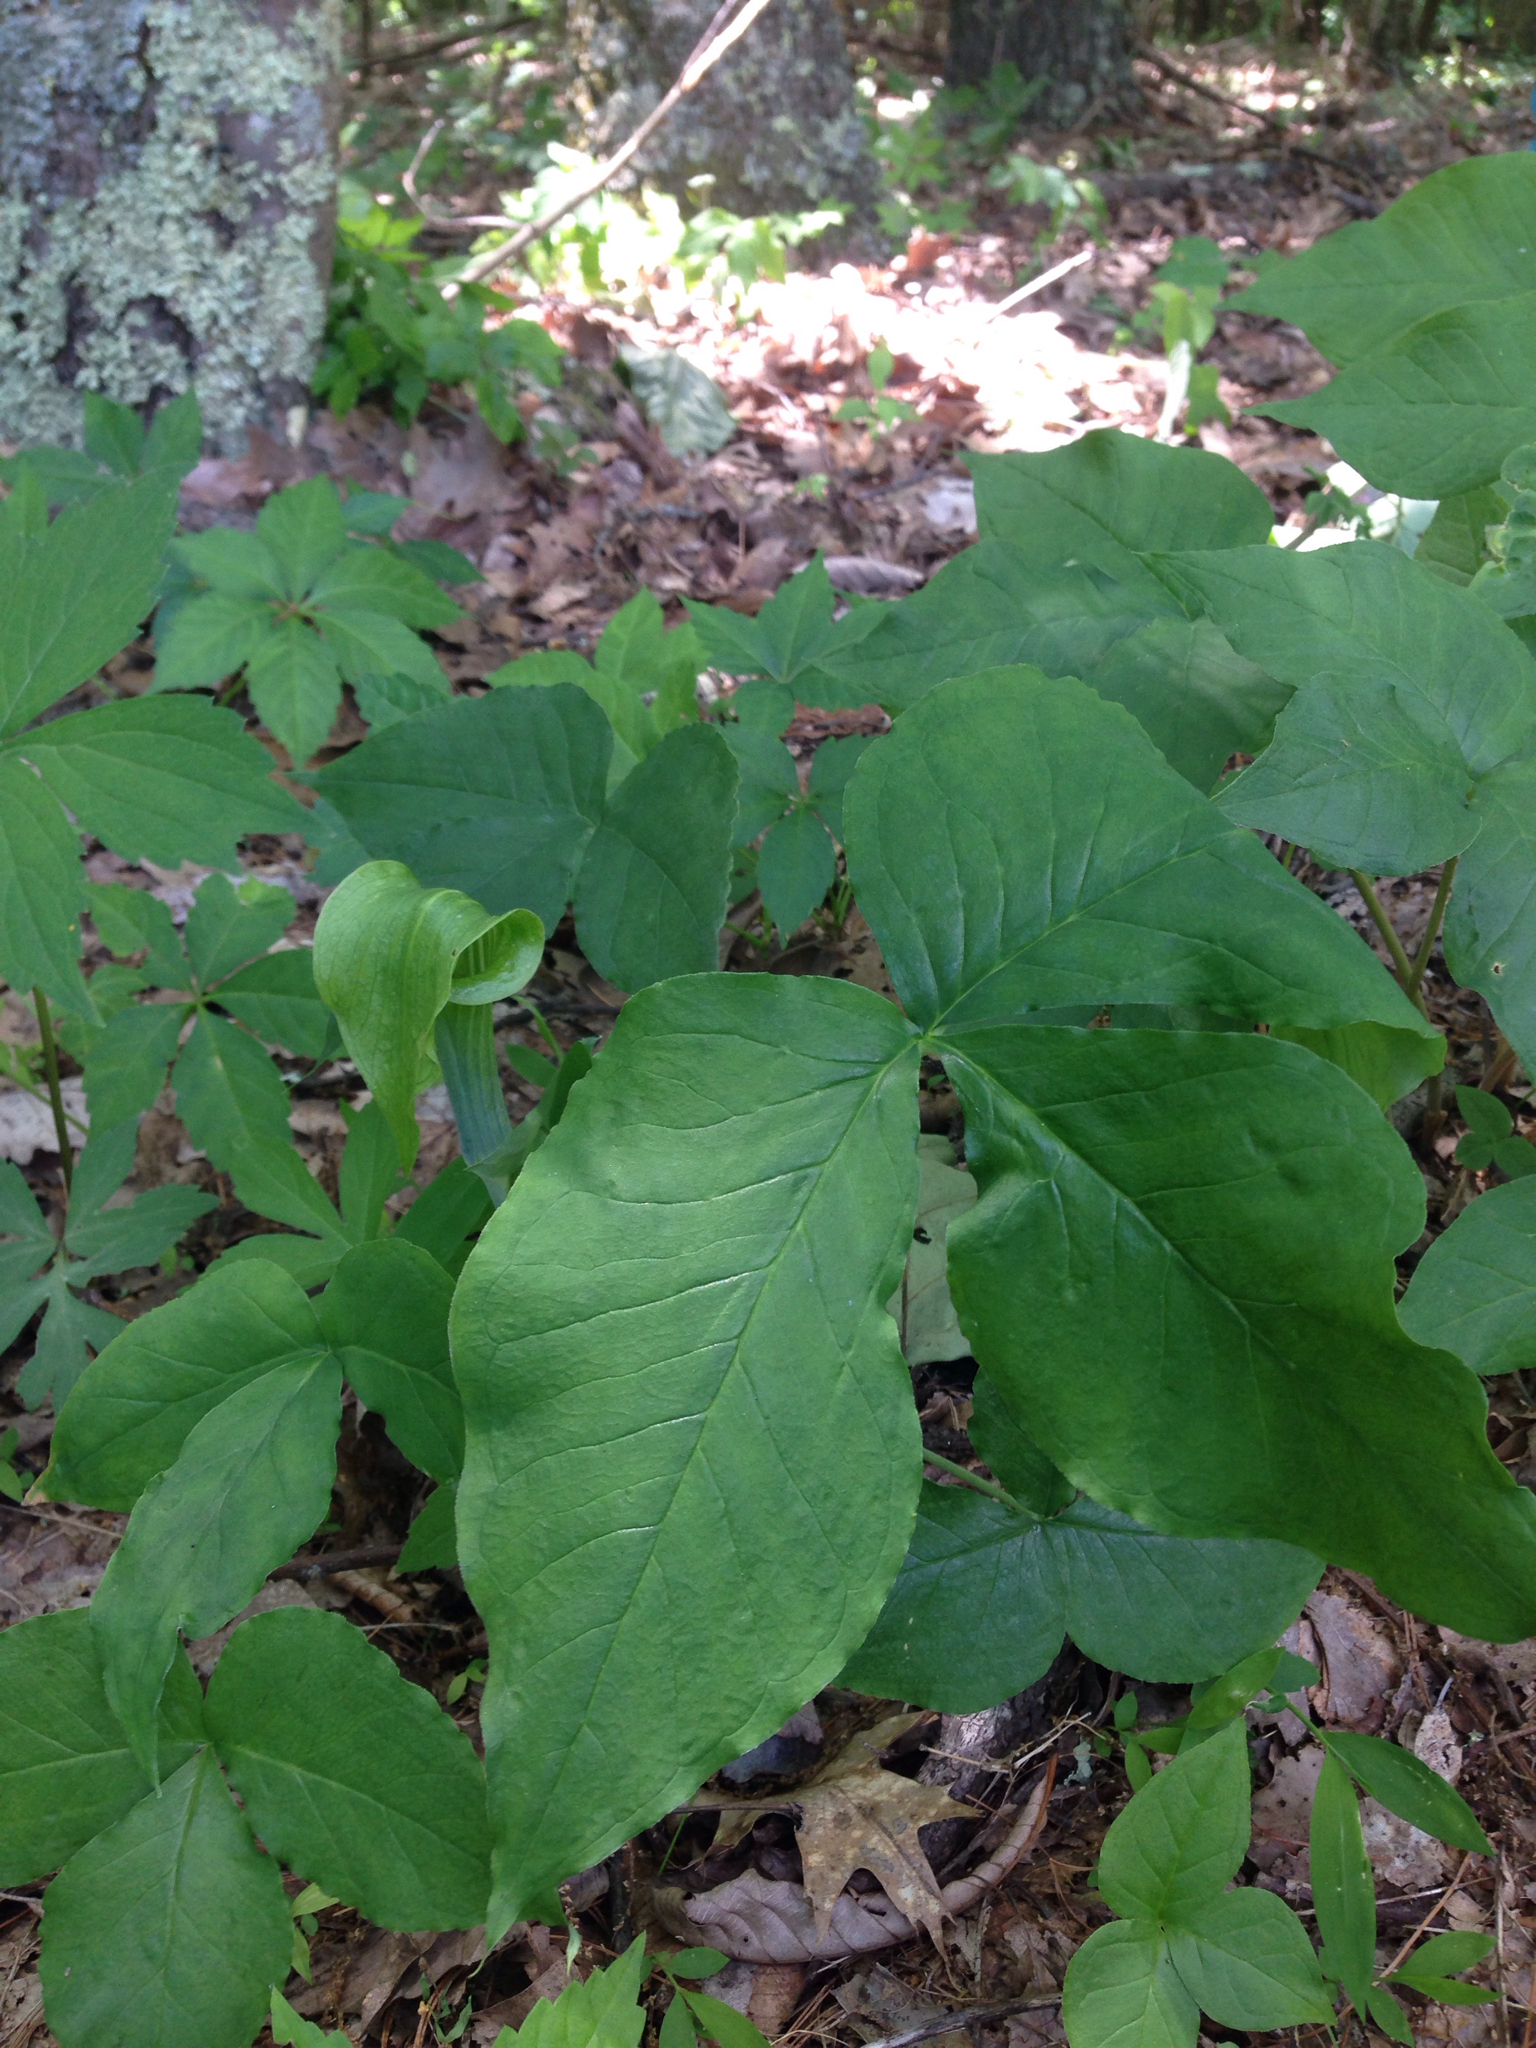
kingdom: Plantae
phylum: Tracheophyta
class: Liliopsida
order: Alismatales
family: Araceae
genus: Arisaema
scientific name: Arisaema triphyllum
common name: Jack-in-the-pulpit
